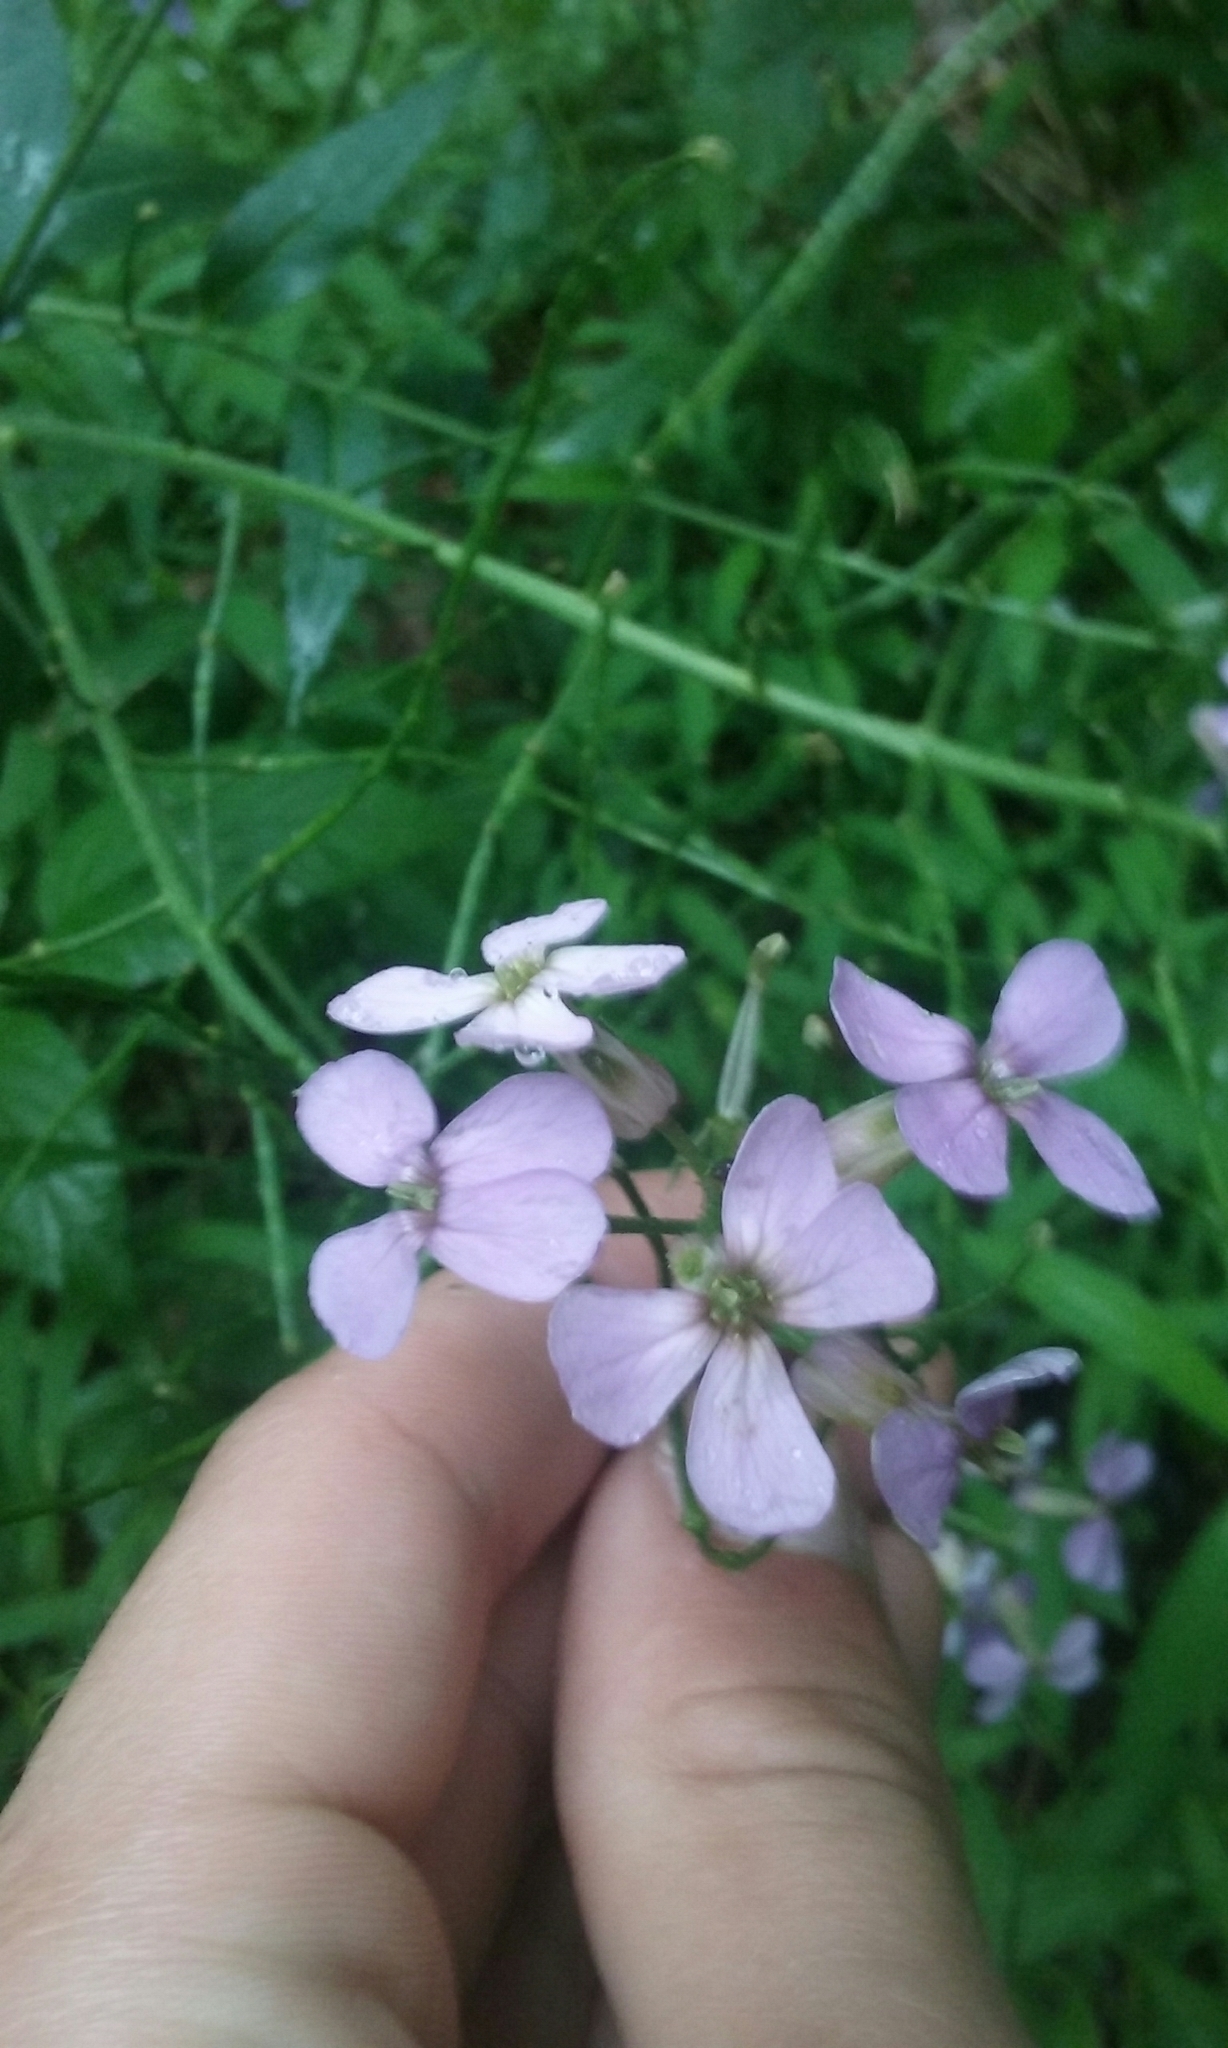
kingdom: Plantae
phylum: Tracheophyta
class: Magnoliopsida
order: Brassicales
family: Brassicaceae
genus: Hesperis
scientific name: Hesperis matronalis
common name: Dame's-violet
